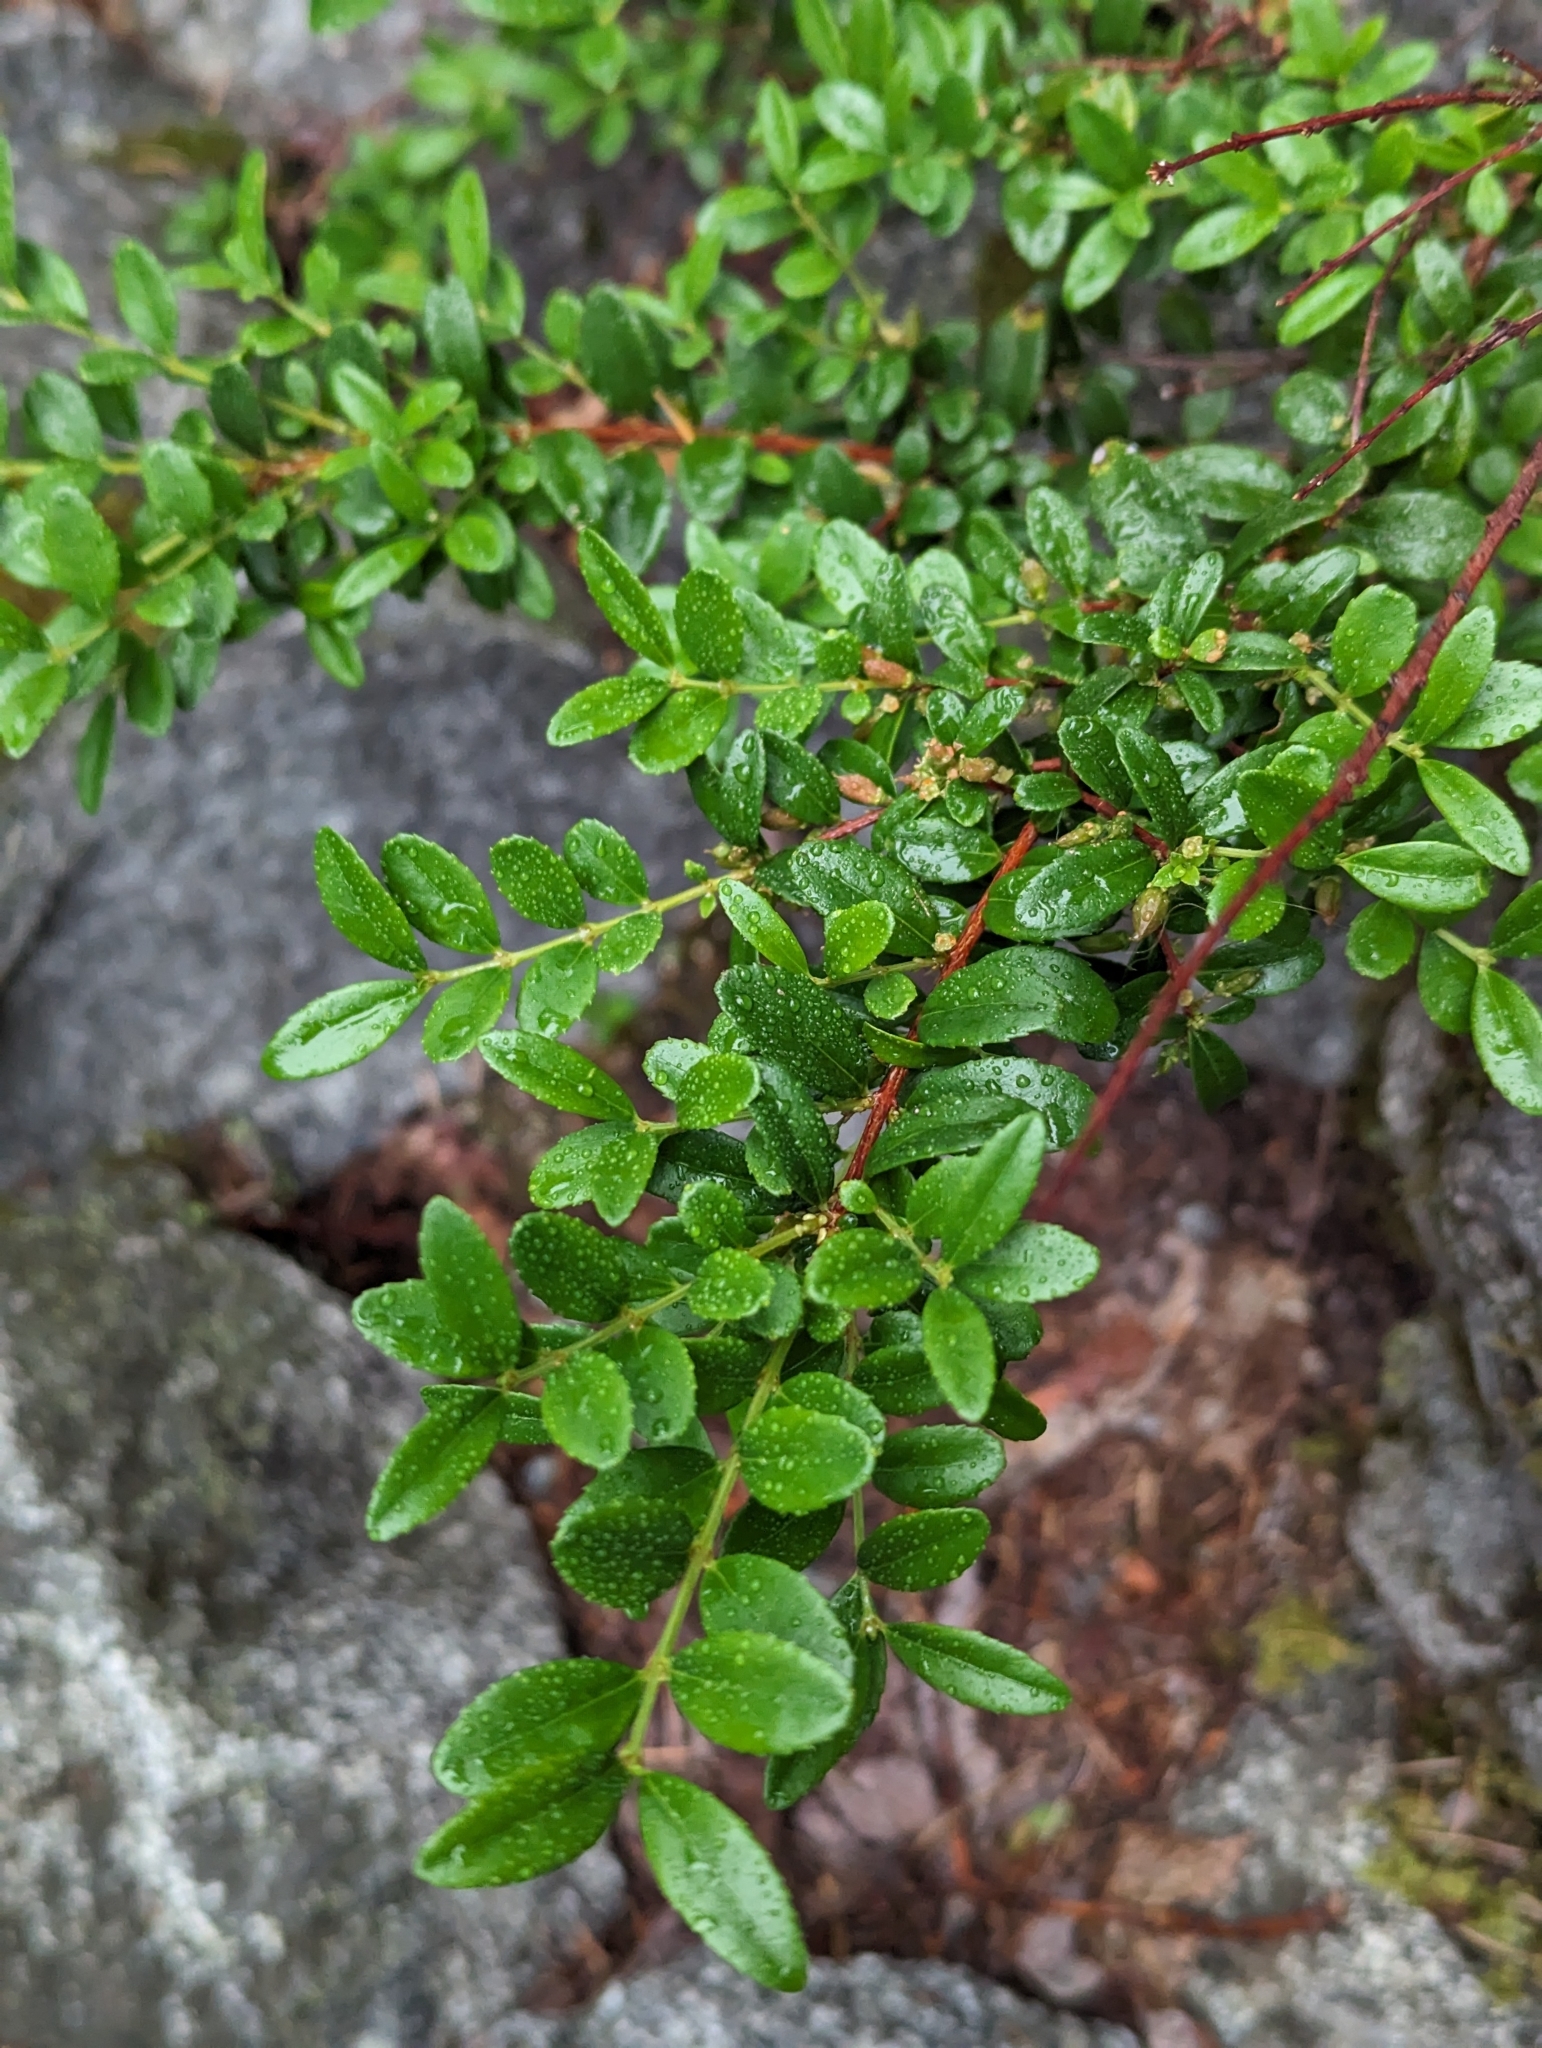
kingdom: Plantae
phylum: Tracheophyta
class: Magnoliopsida
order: Celastrales
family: Celastraceae
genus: Paxistima
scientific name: Paxistima myrsinites
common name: Mountain-lover
